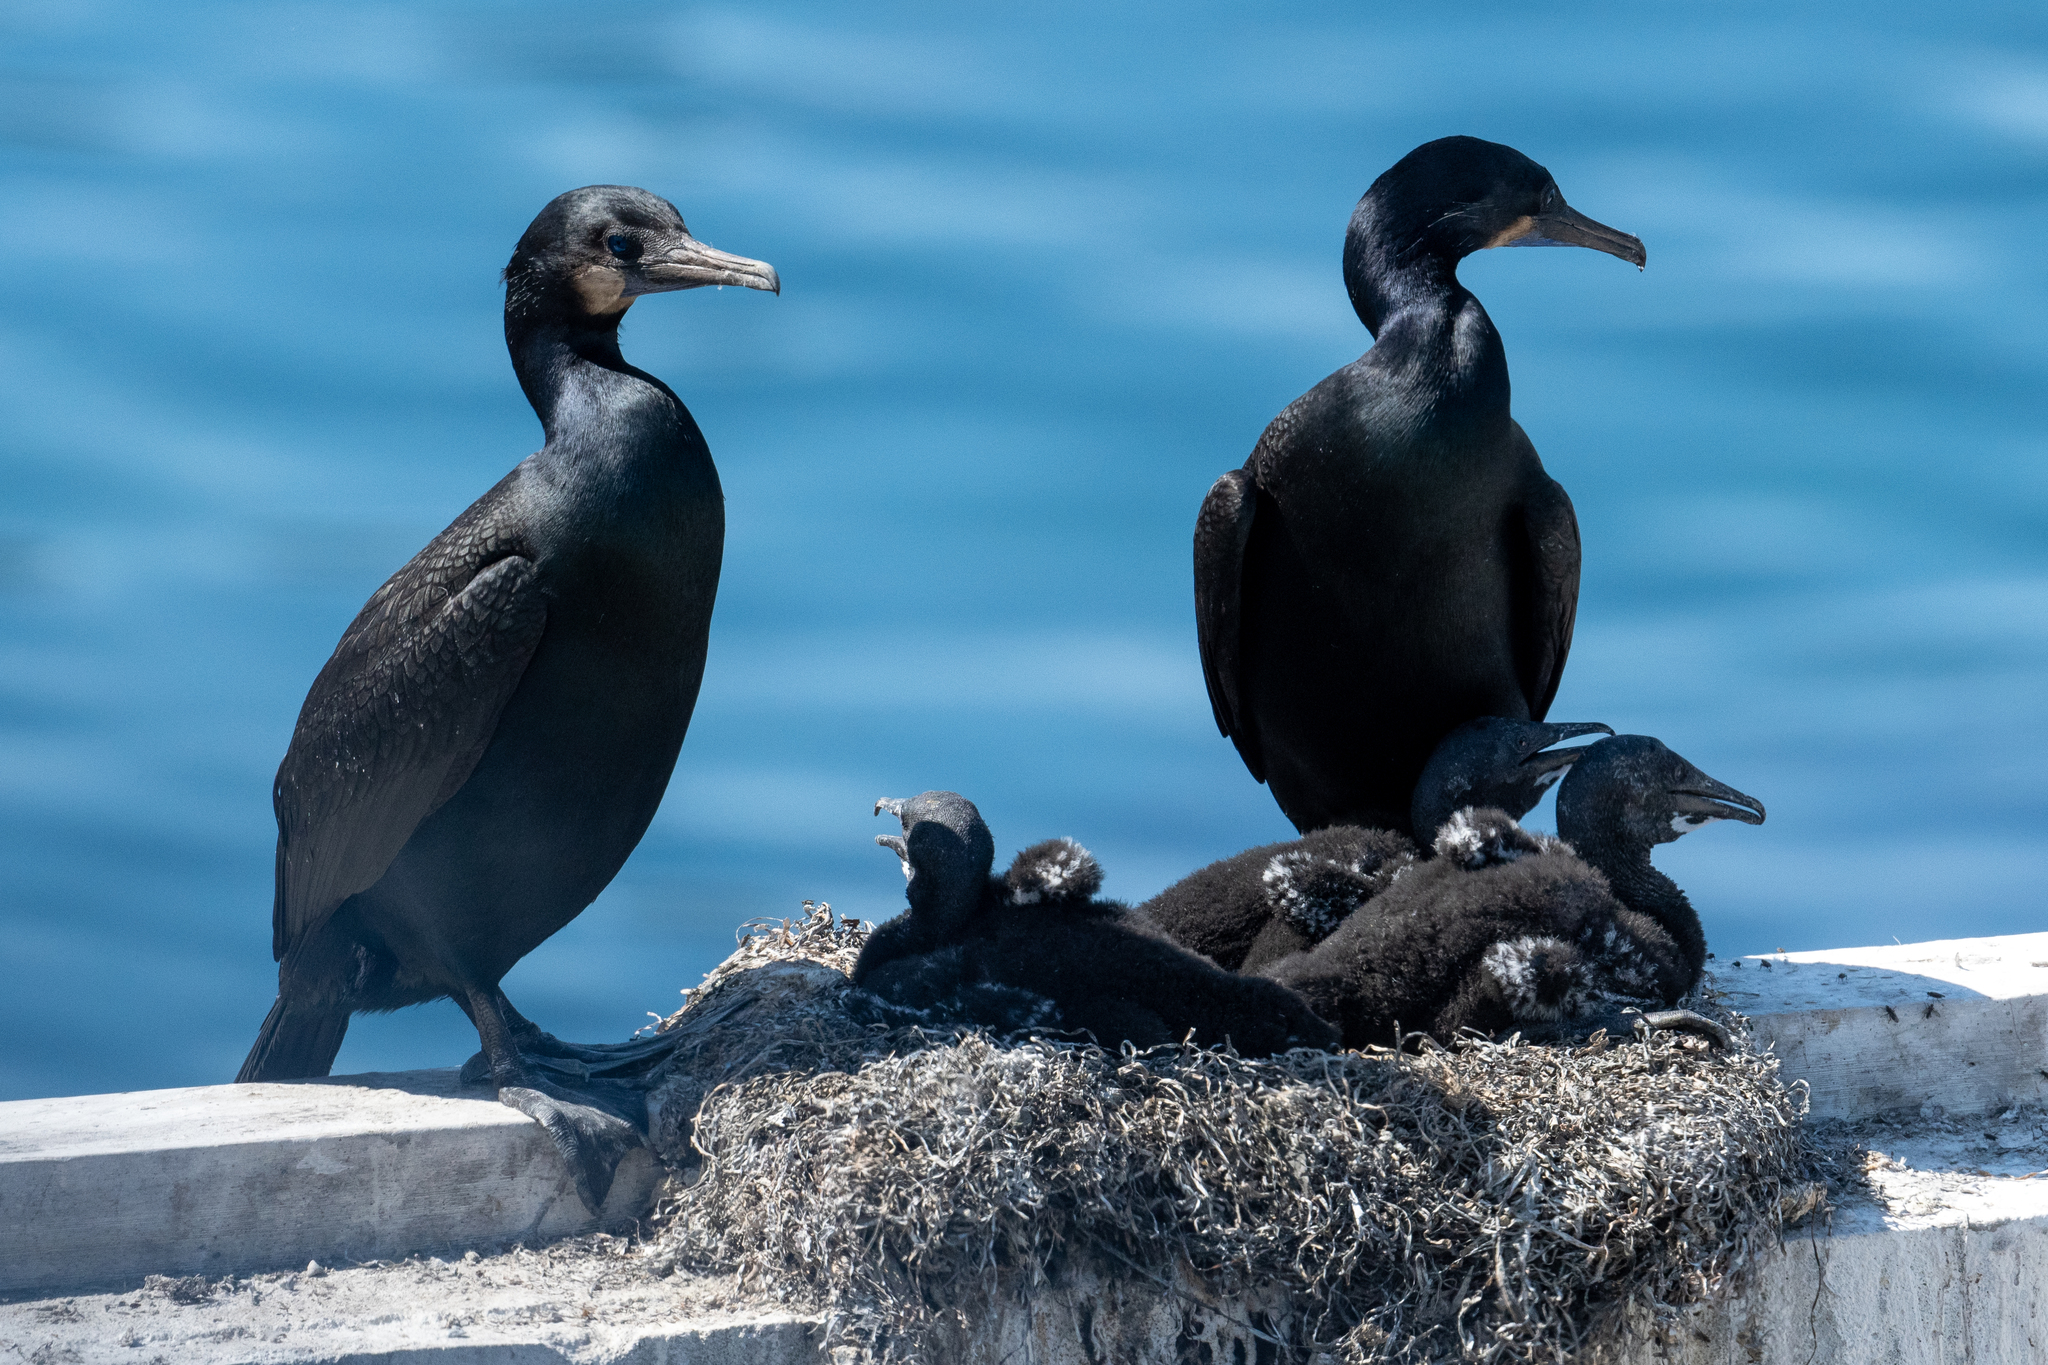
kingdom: Animalia
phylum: Chordata
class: Aves
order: Suliformes
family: Phalacrocoracidae
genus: Urile
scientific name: Urile penicillatus
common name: Brandt's cormorant
